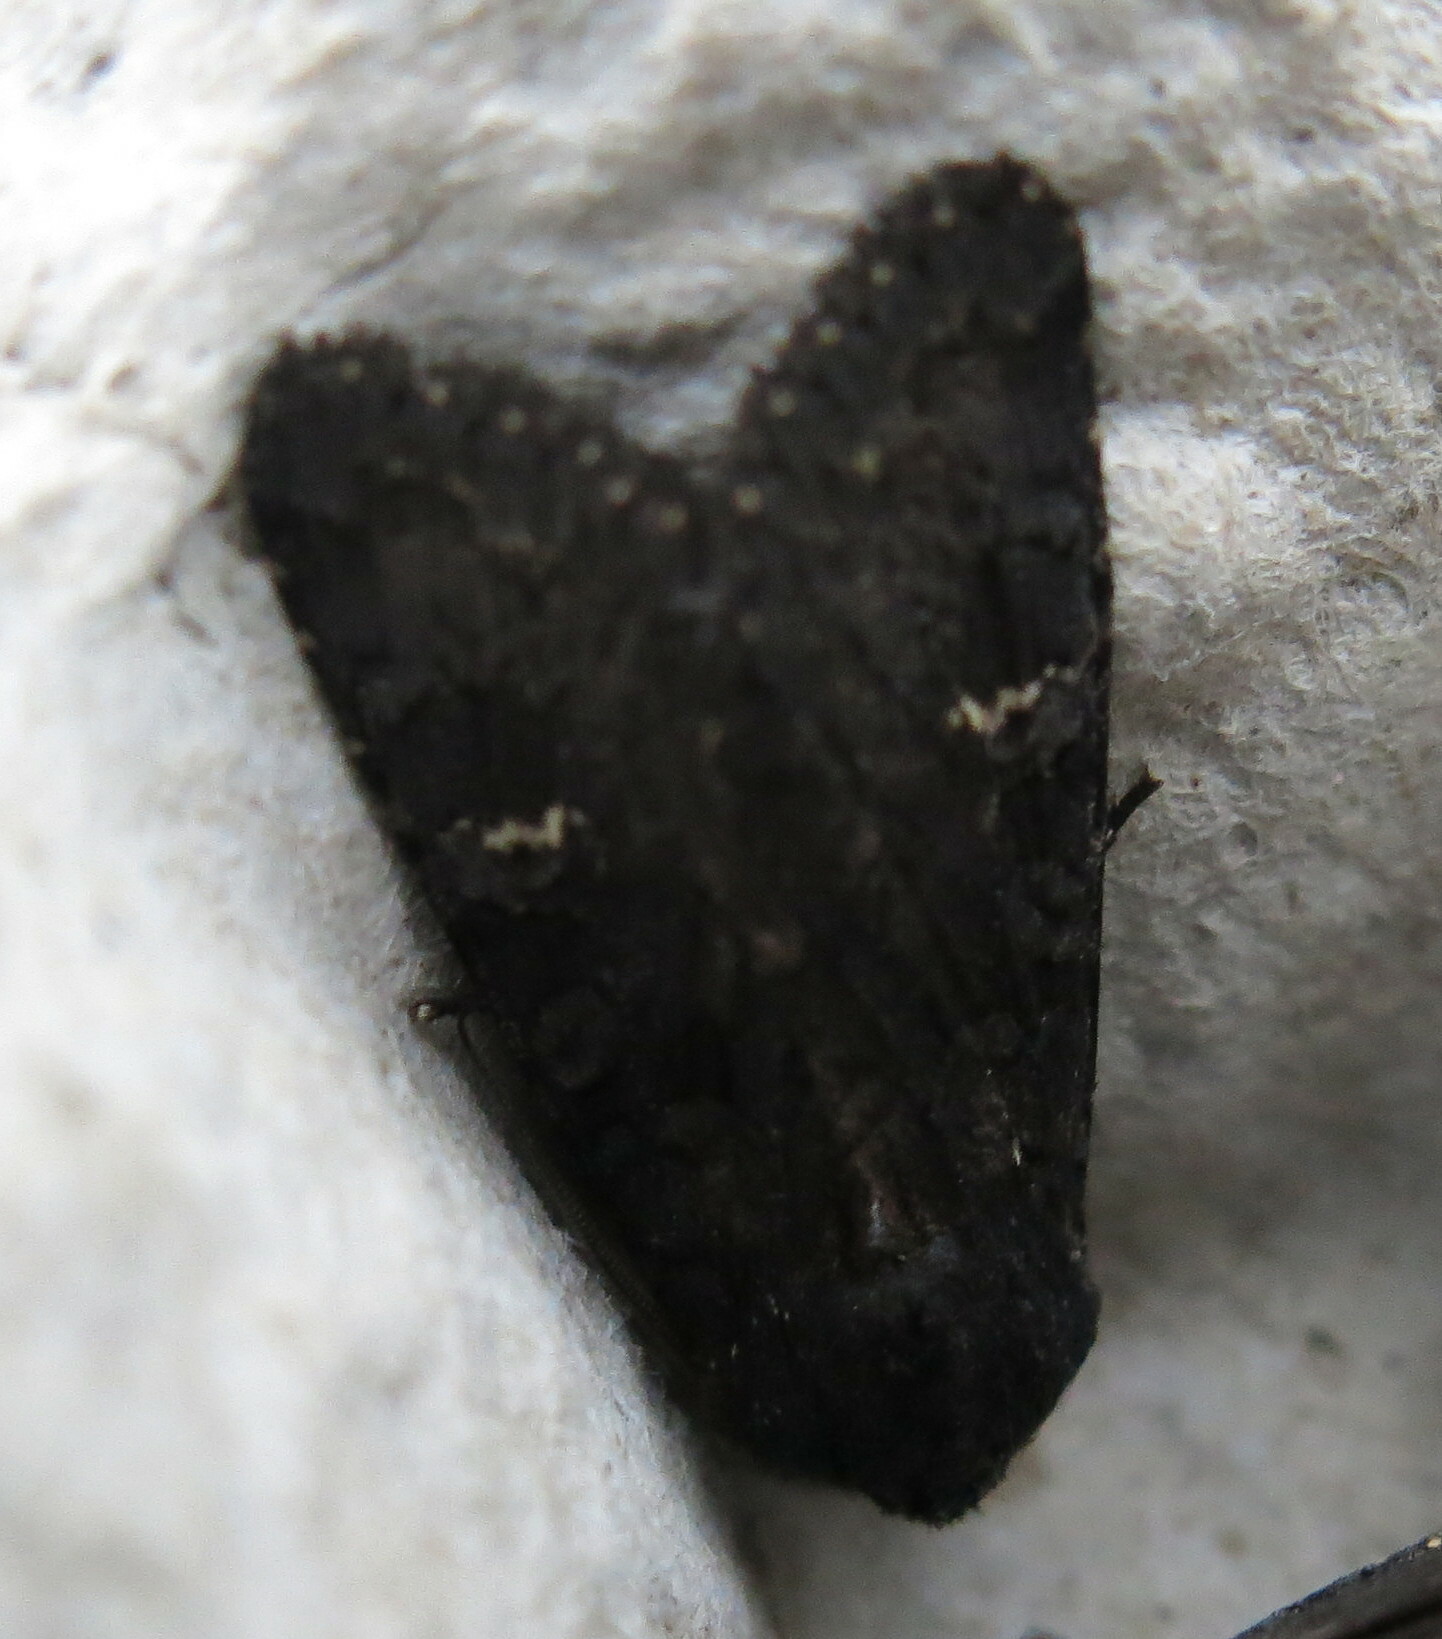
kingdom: Animalia
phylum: Arthropoda
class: Insecta
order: Lepidoptera
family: Noctuidae
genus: Aporophyla
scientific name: Aporophyla nigra
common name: Black rustic
